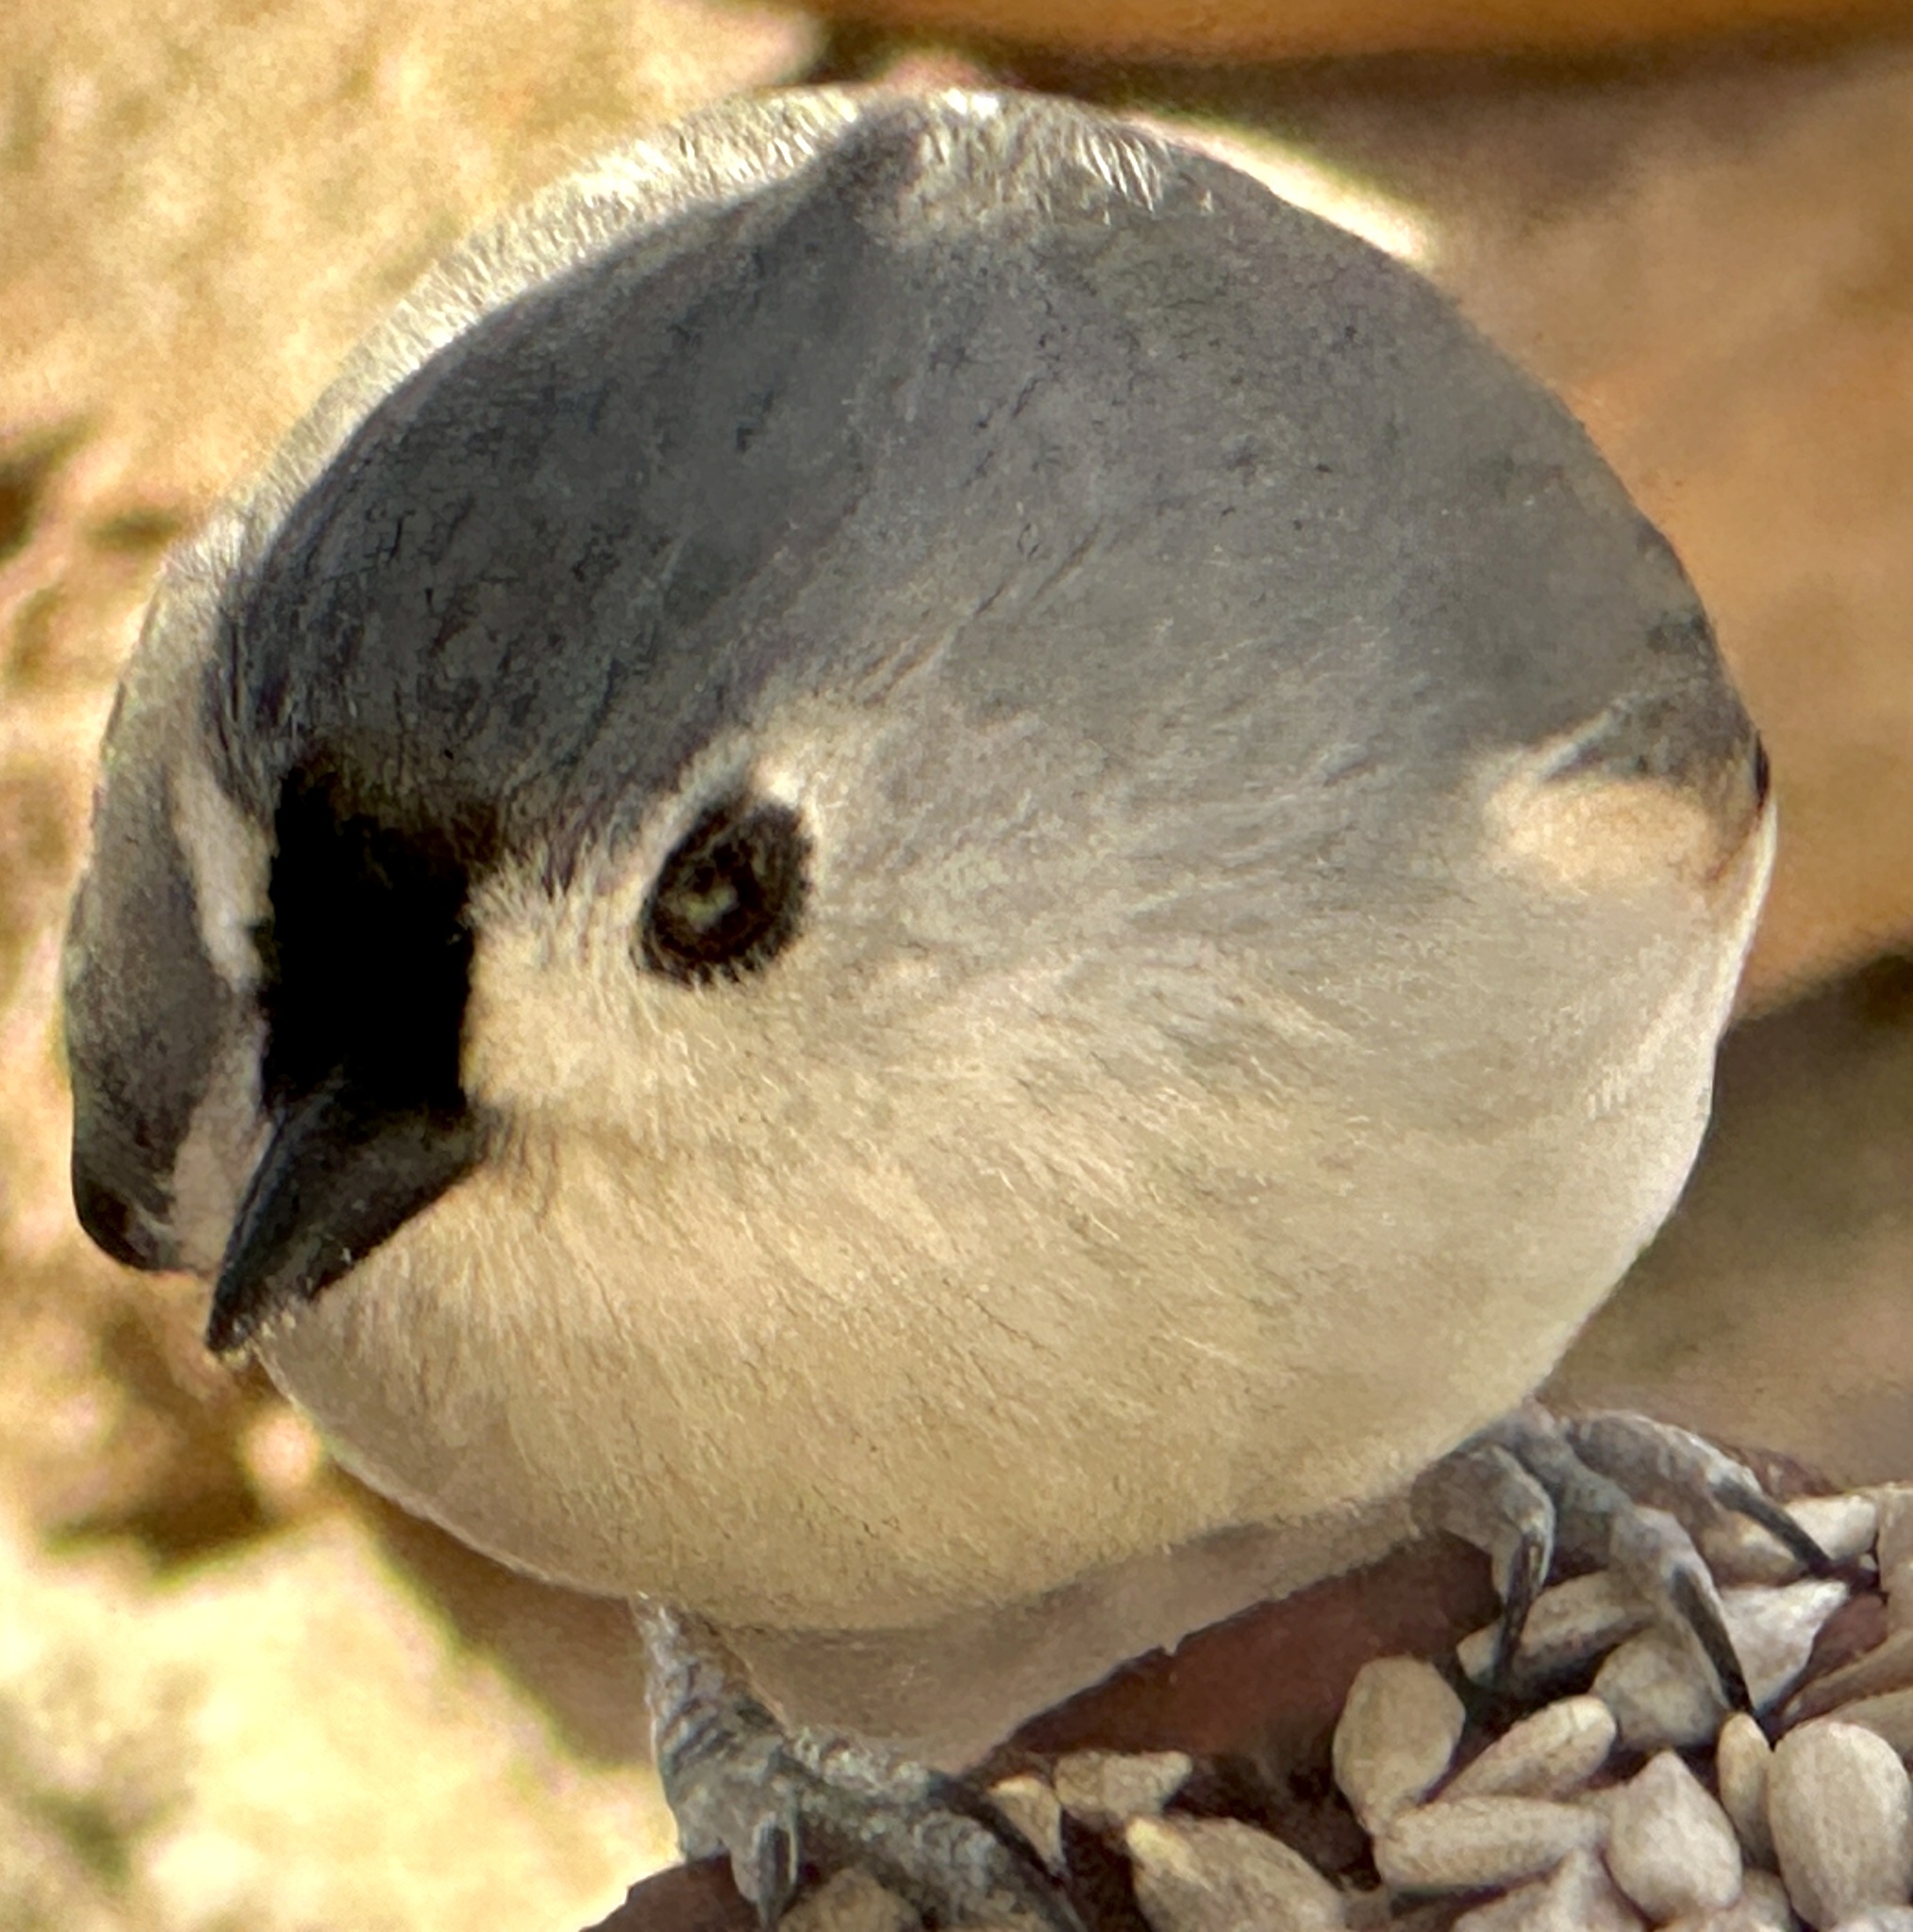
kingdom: Animalia
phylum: Chordata
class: Aves
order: Passeriformes
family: Paridae
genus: Baeolophus
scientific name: Baeolophus bicolor
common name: Tufted titmouse
